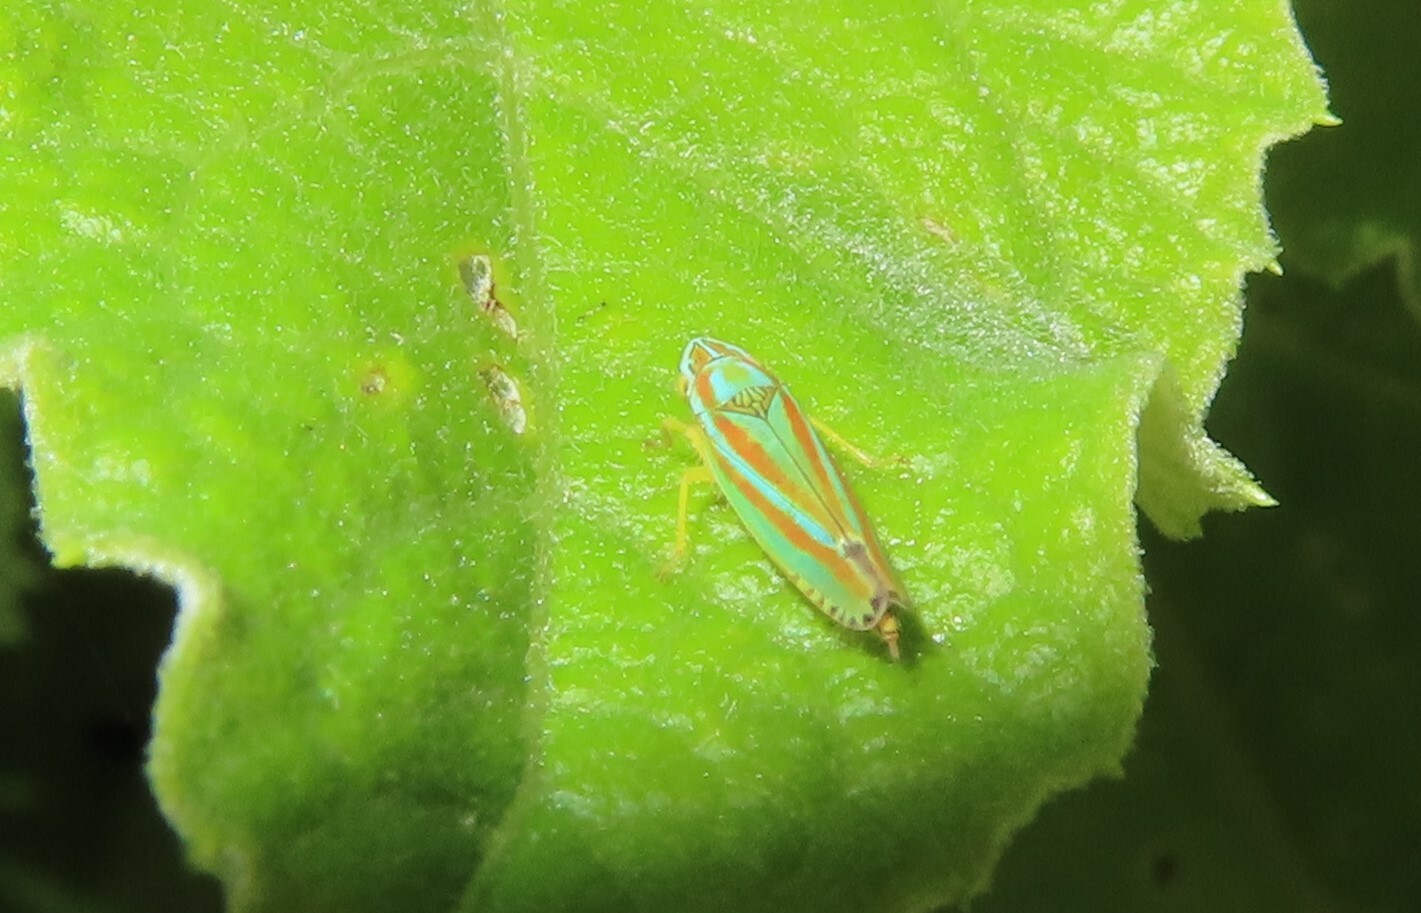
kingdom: Animalia
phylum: Arthropoda
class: Insecta
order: Hemiptera
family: Cicadellidae
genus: Graphocephala
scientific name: Graphocephala versuta
